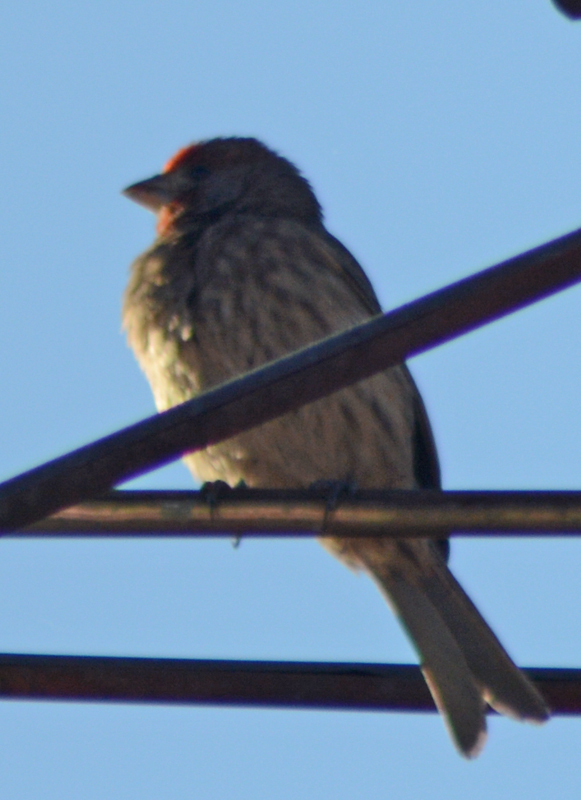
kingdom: Animalia
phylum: Chordata
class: Aves
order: Passeriformes
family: Fringillidae
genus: Haemorhous
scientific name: Haemorhous mexicanus
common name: House finch
